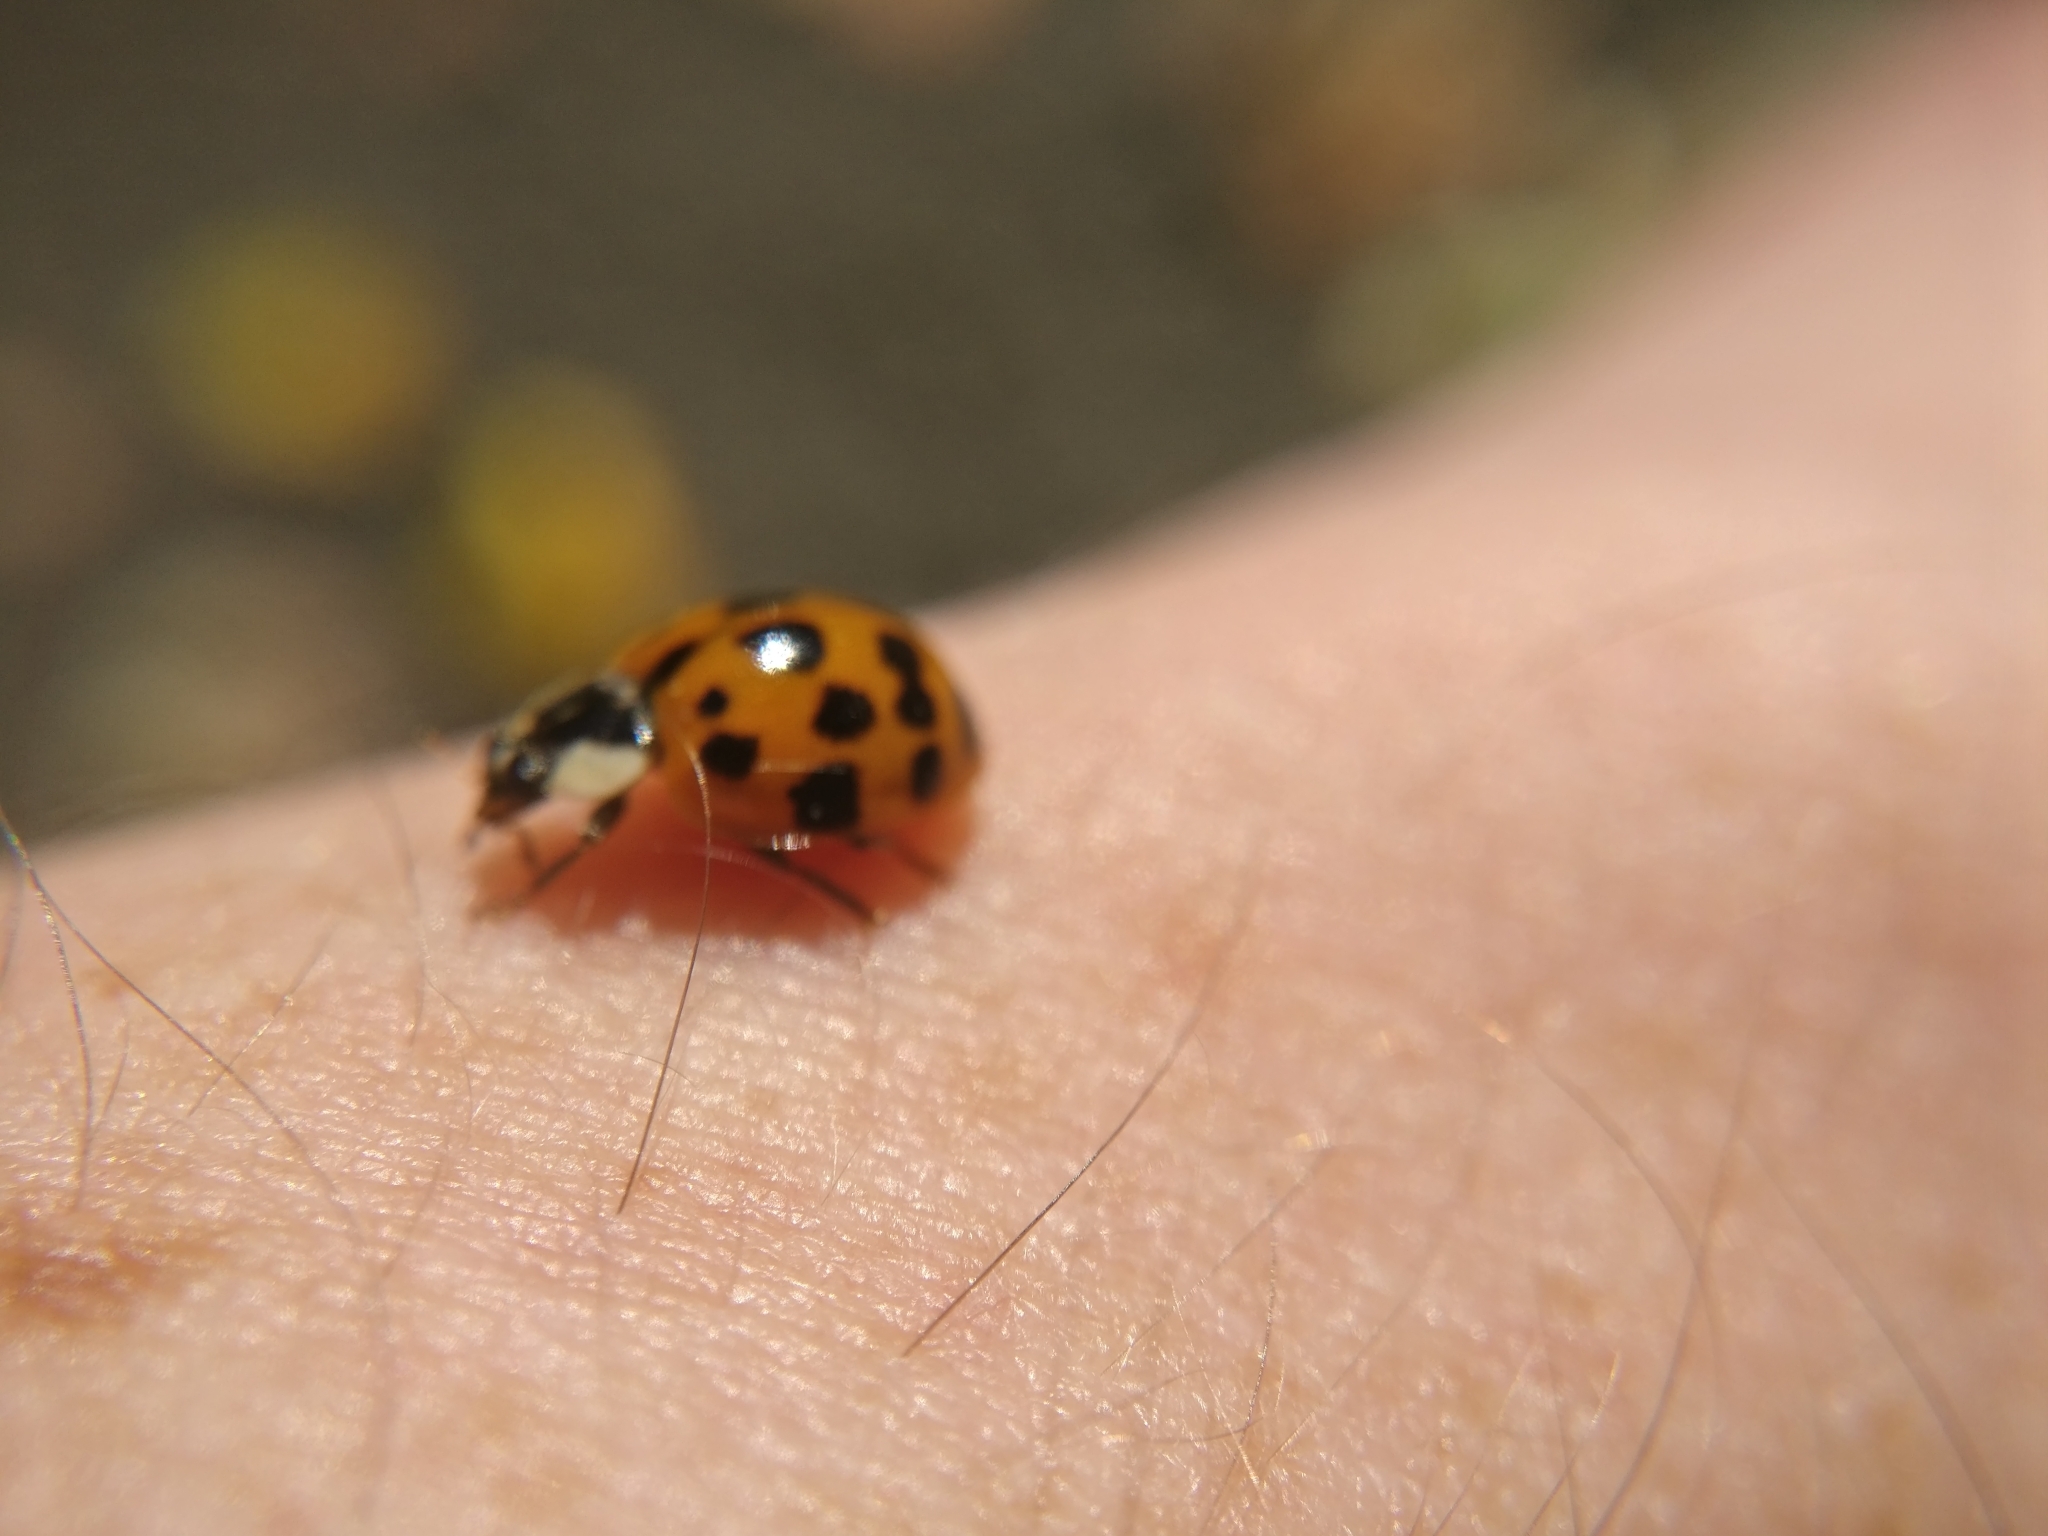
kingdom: Animalia
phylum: Arthropoda
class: Insecta
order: Coleoptera
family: Coccinellidae
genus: Harmonia
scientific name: Harmonia axyridis
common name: Harlequin ladybird
